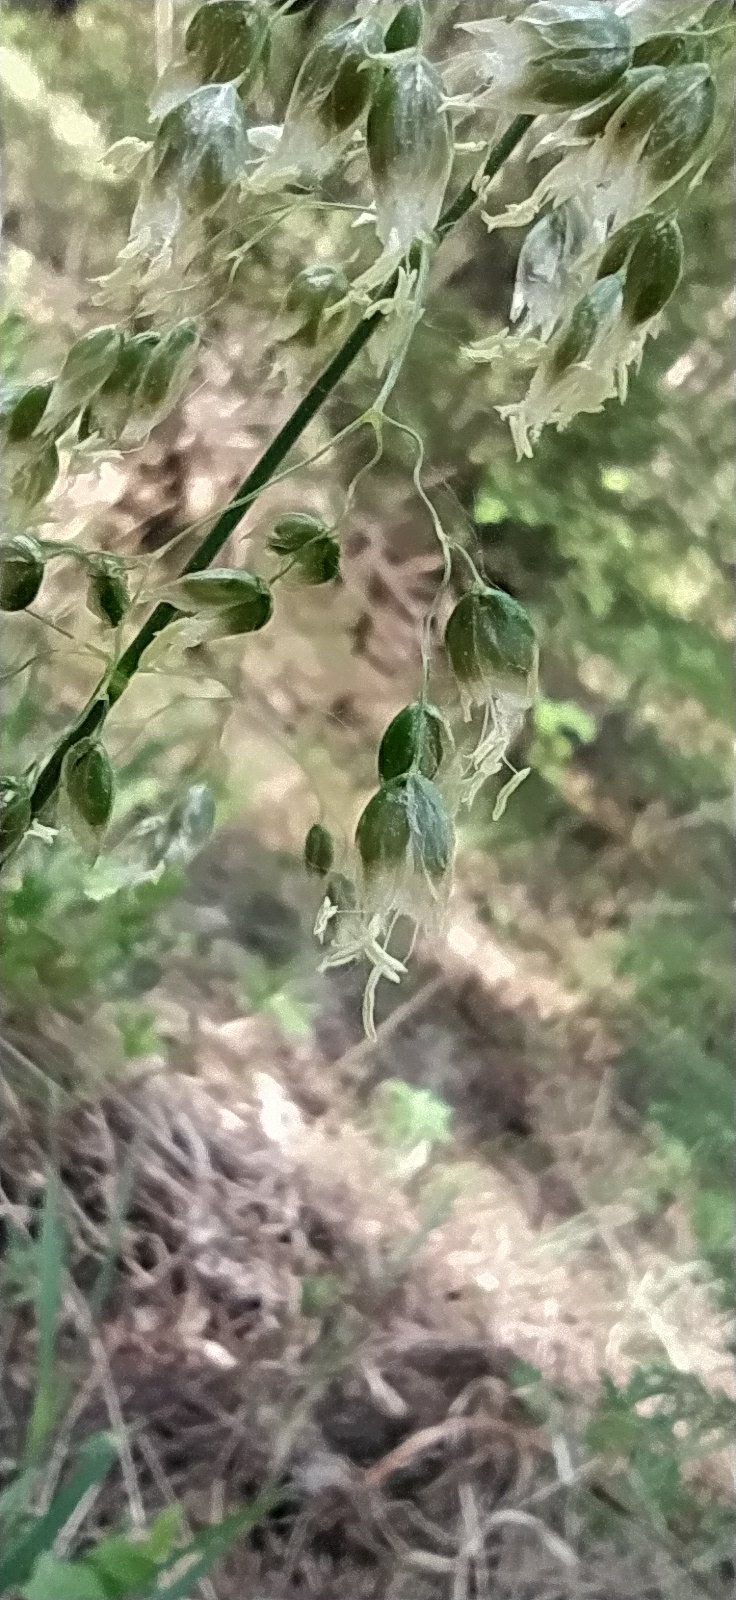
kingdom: Plantae
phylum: Tracheophyta
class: Liliopsida
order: Poales
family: Poaceae
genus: Anthoxanthum
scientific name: Anthoxanthum nitens
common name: Holy grass
